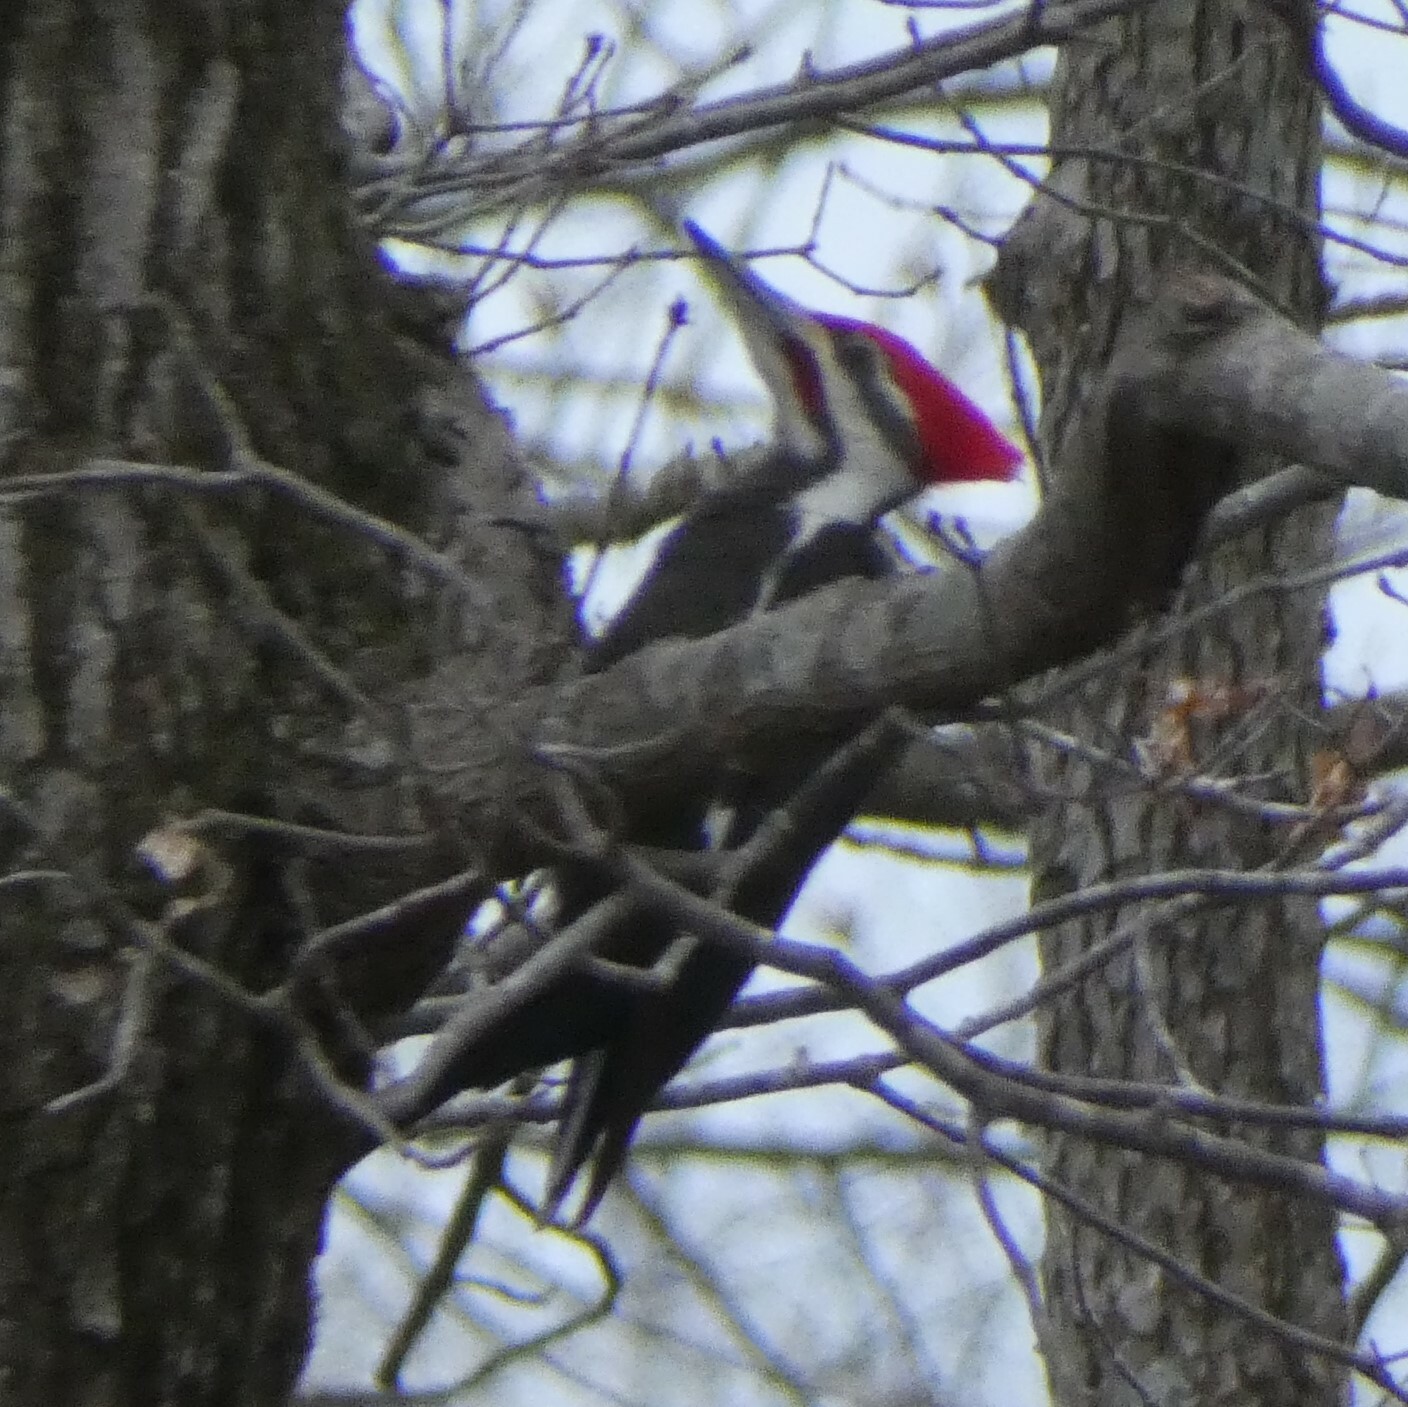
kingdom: Animalia
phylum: Chordata
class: Aves
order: Piciformes
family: Picidae
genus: Dryocopus
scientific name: Dryocopus pileatus
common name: Pileated woodpecker
